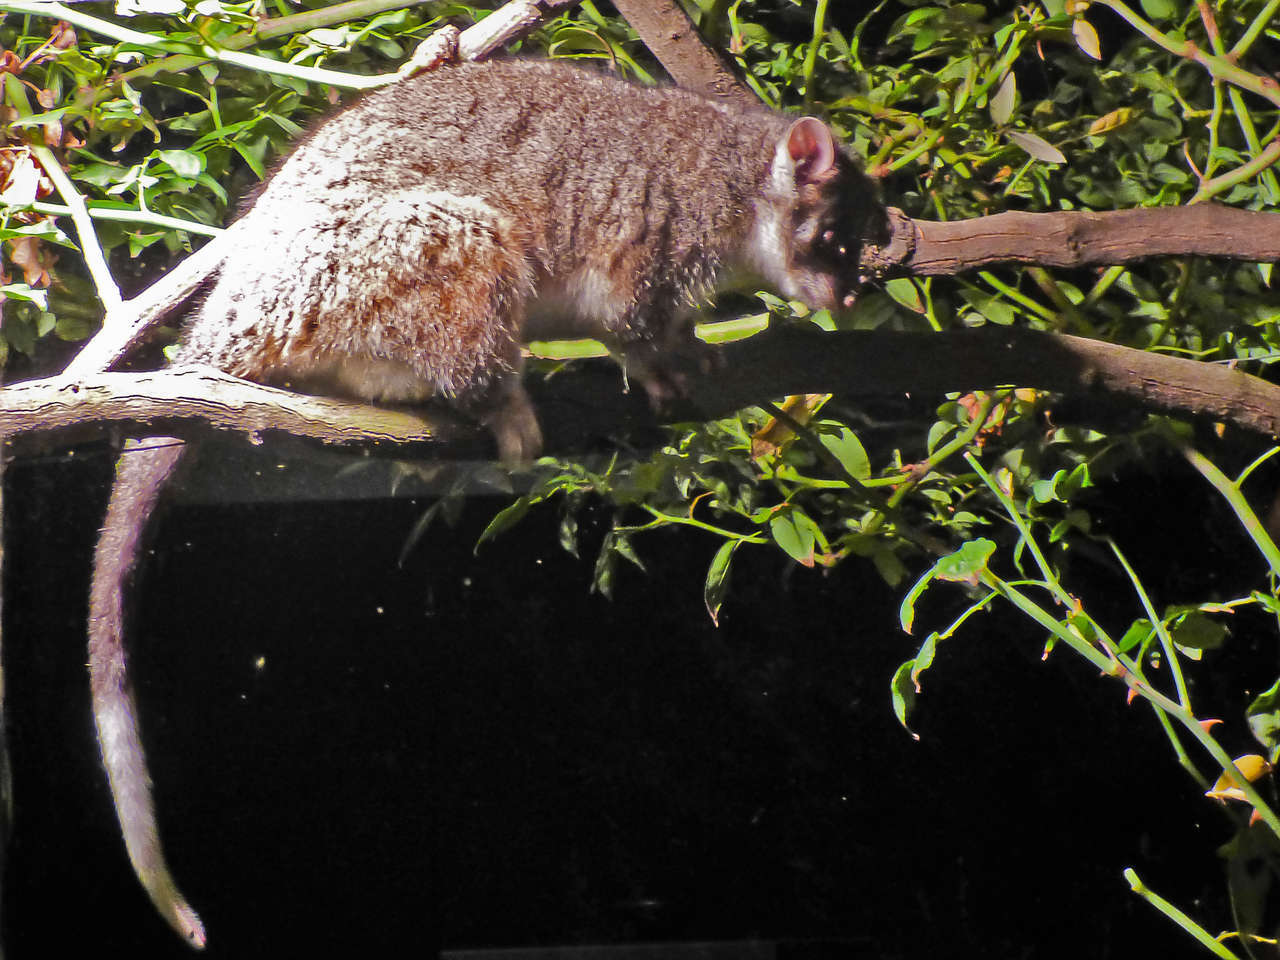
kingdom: Animalia
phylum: Chordata
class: Mammalia
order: Diprotodontia
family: Pseudocheiridae
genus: Pseudocheirus
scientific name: Pseudocheirus peregrinus
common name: Common ringtail possum
